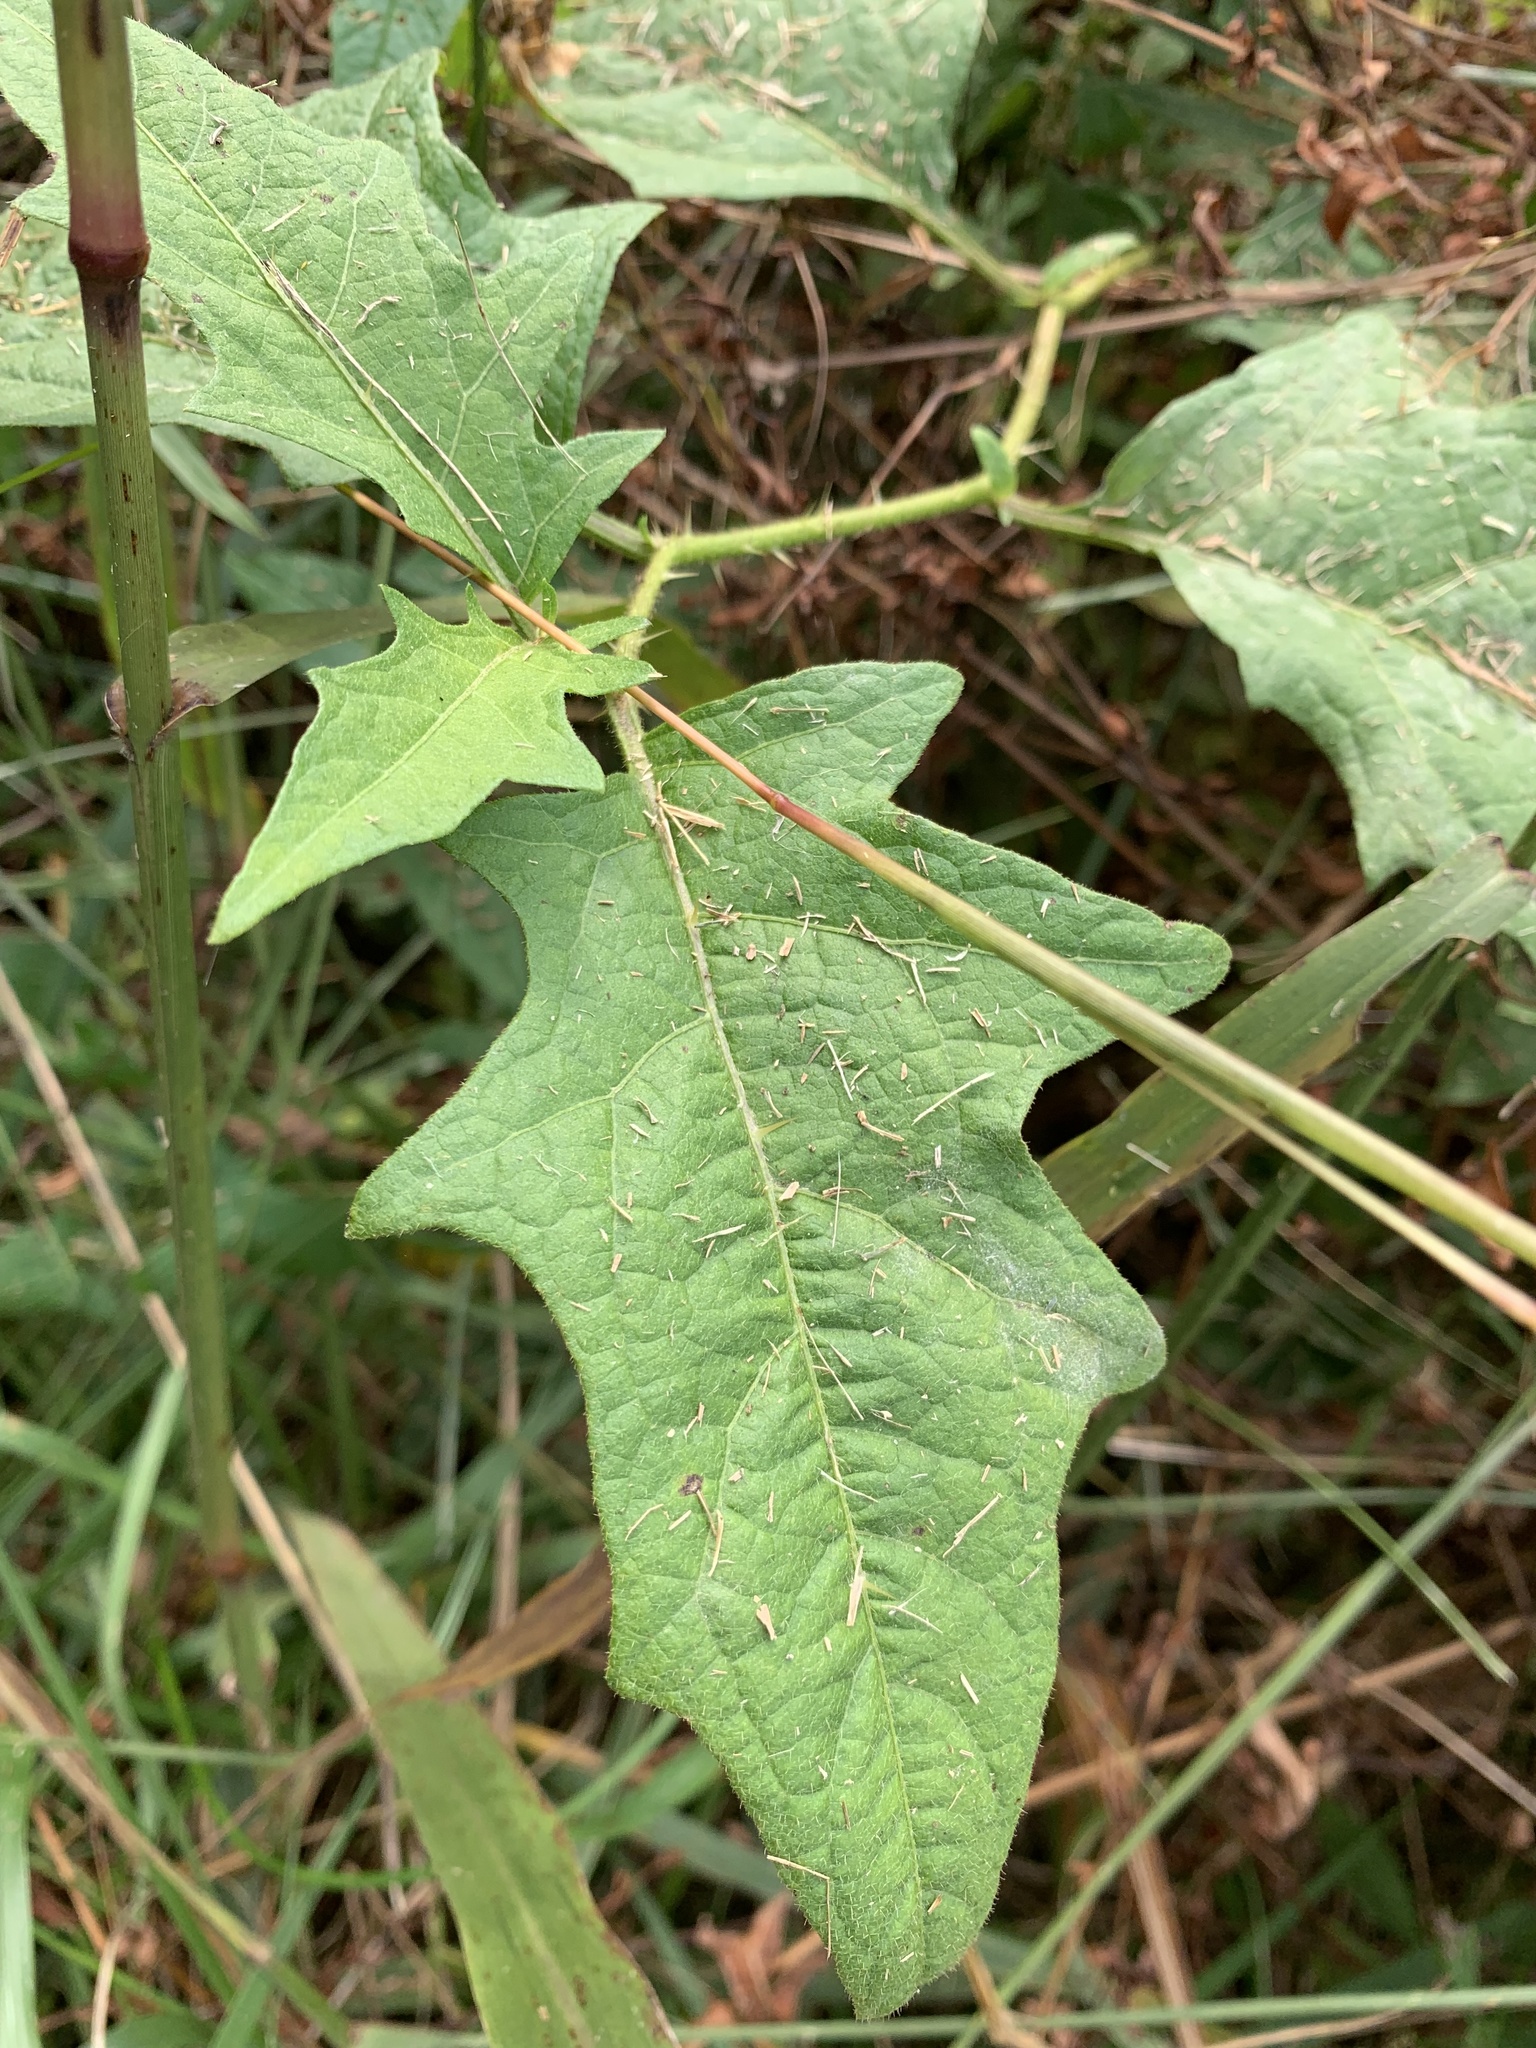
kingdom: Plantae
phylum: Tracheophyta
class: Magnoliopsida
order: Solanales
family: Solanaceae
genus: Solanum
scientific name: Solanum carolinense
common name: Horse-nettle
